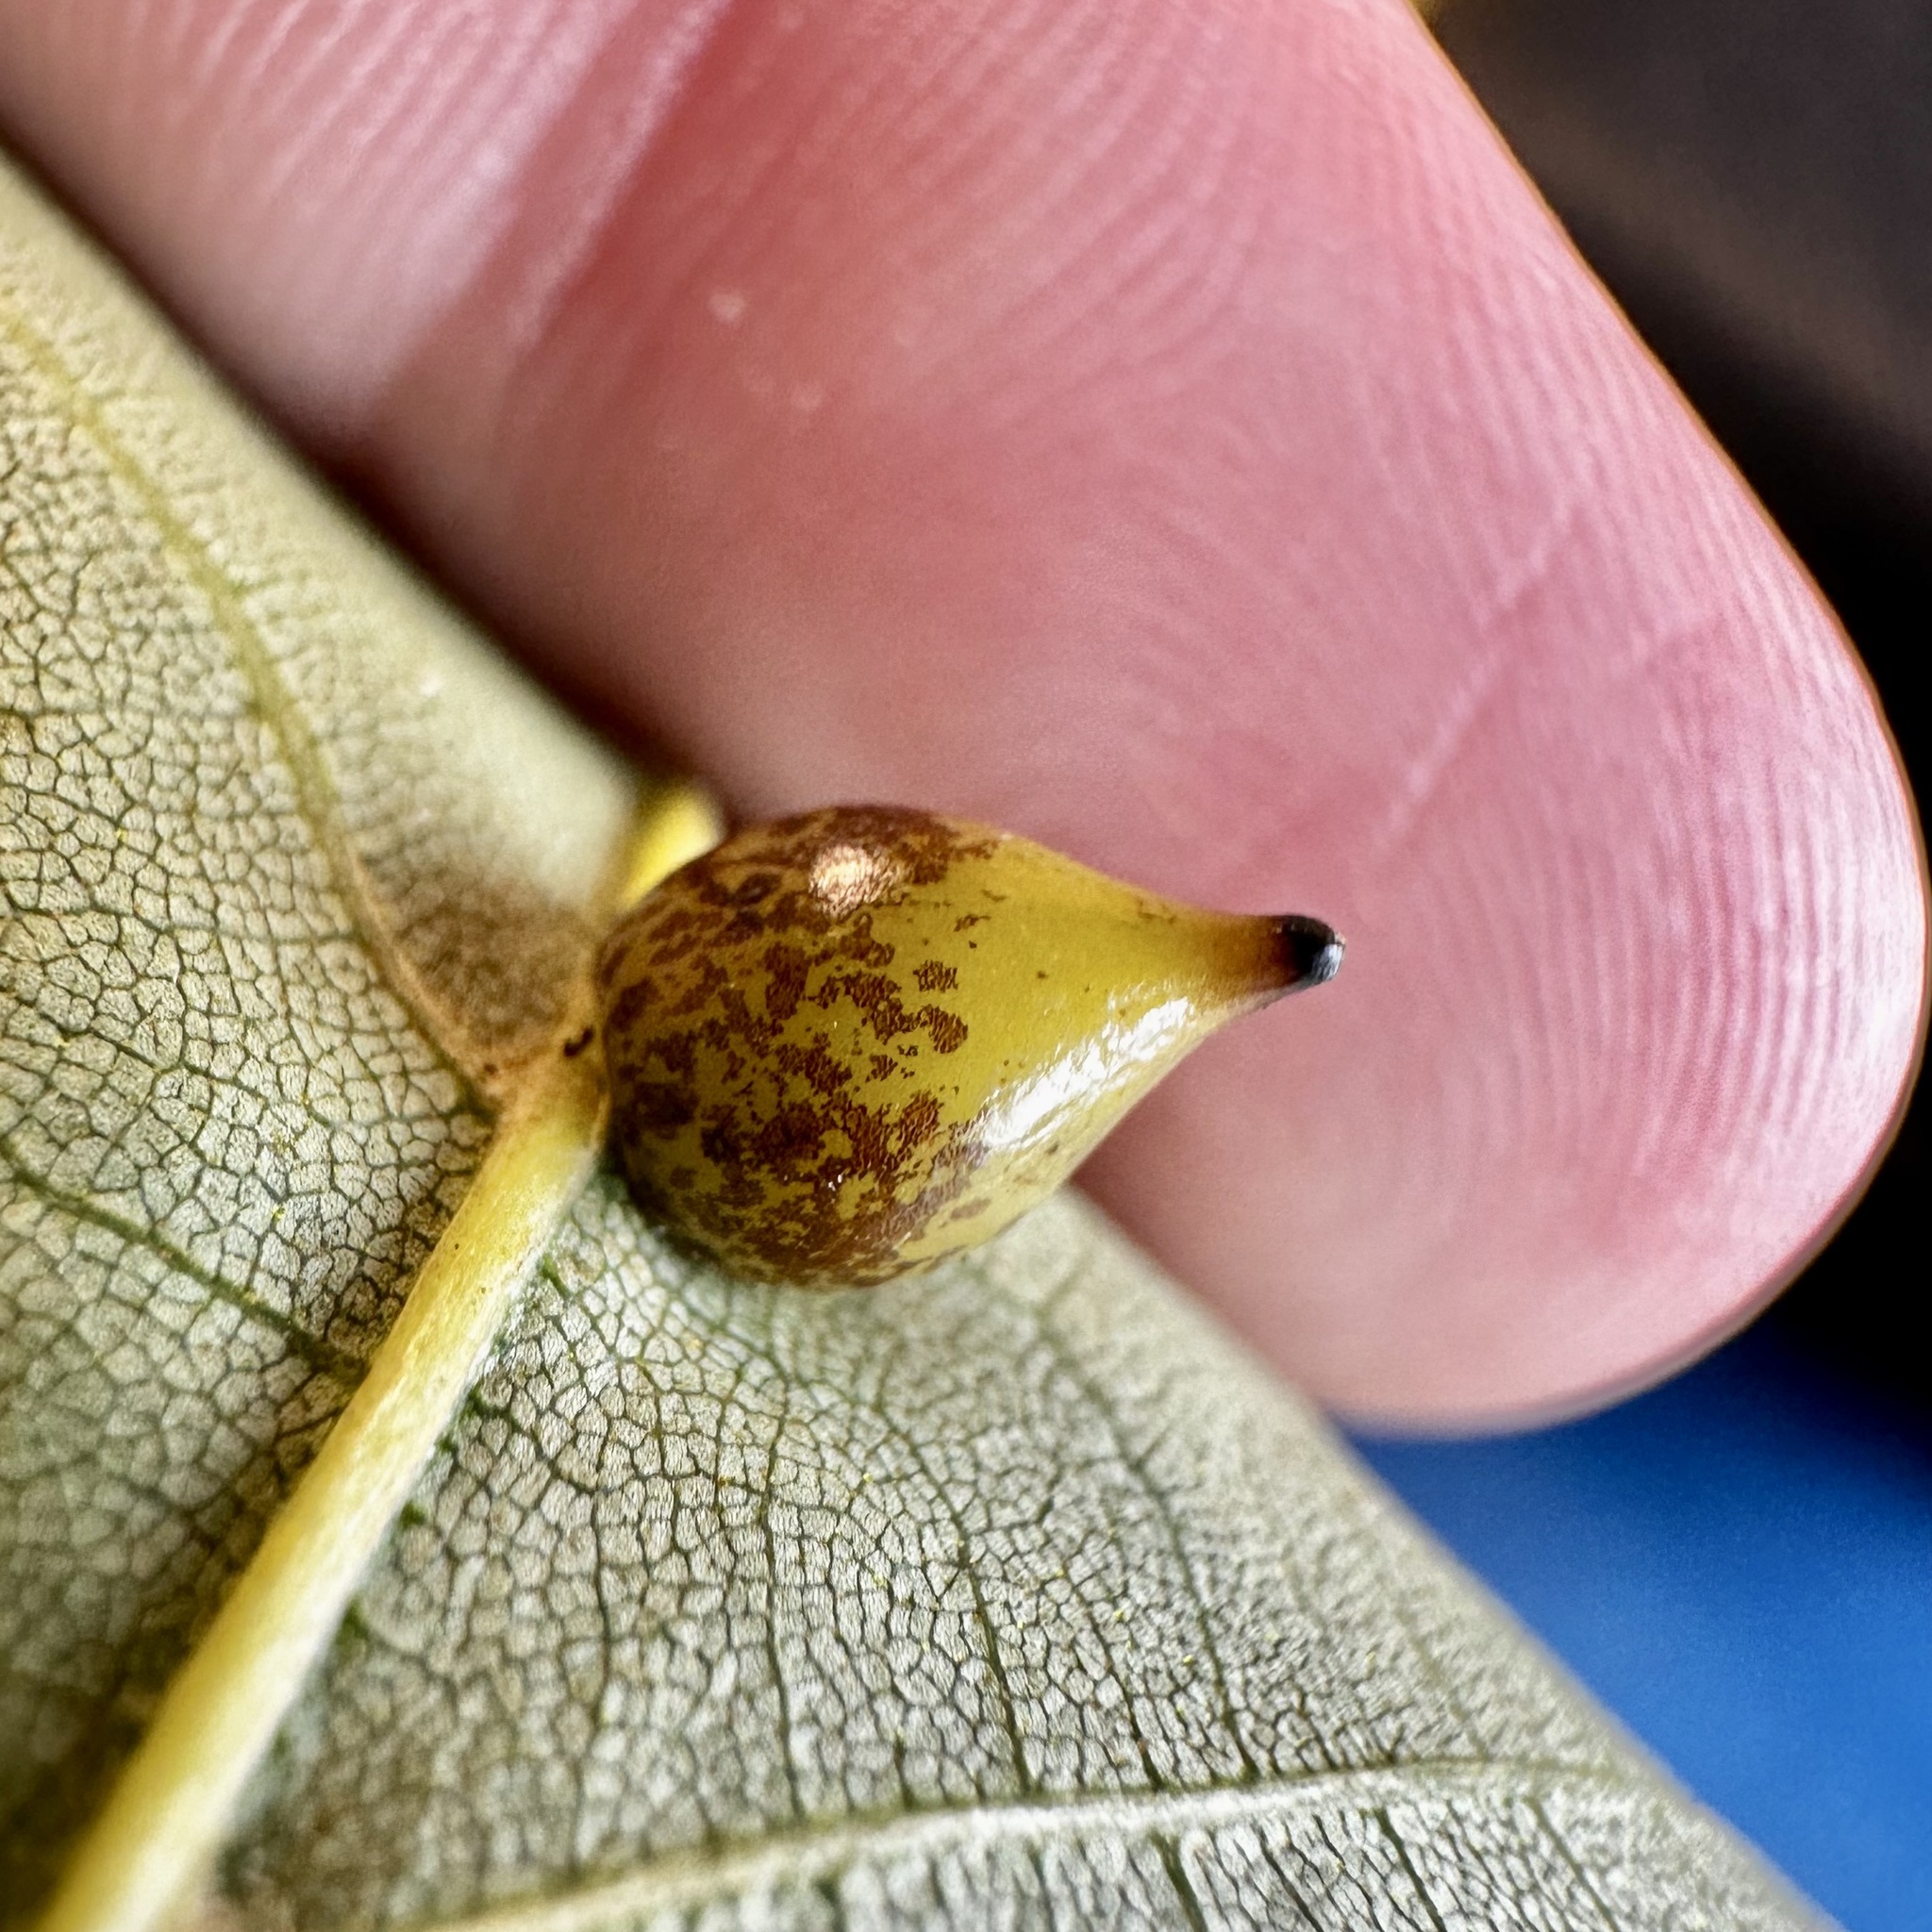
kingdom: Animalia
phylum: Arthropoda
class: Insecta
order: Diptera
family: Cecidomyiidae
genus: Caryomyia
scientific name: Caryomyia caryaecola
